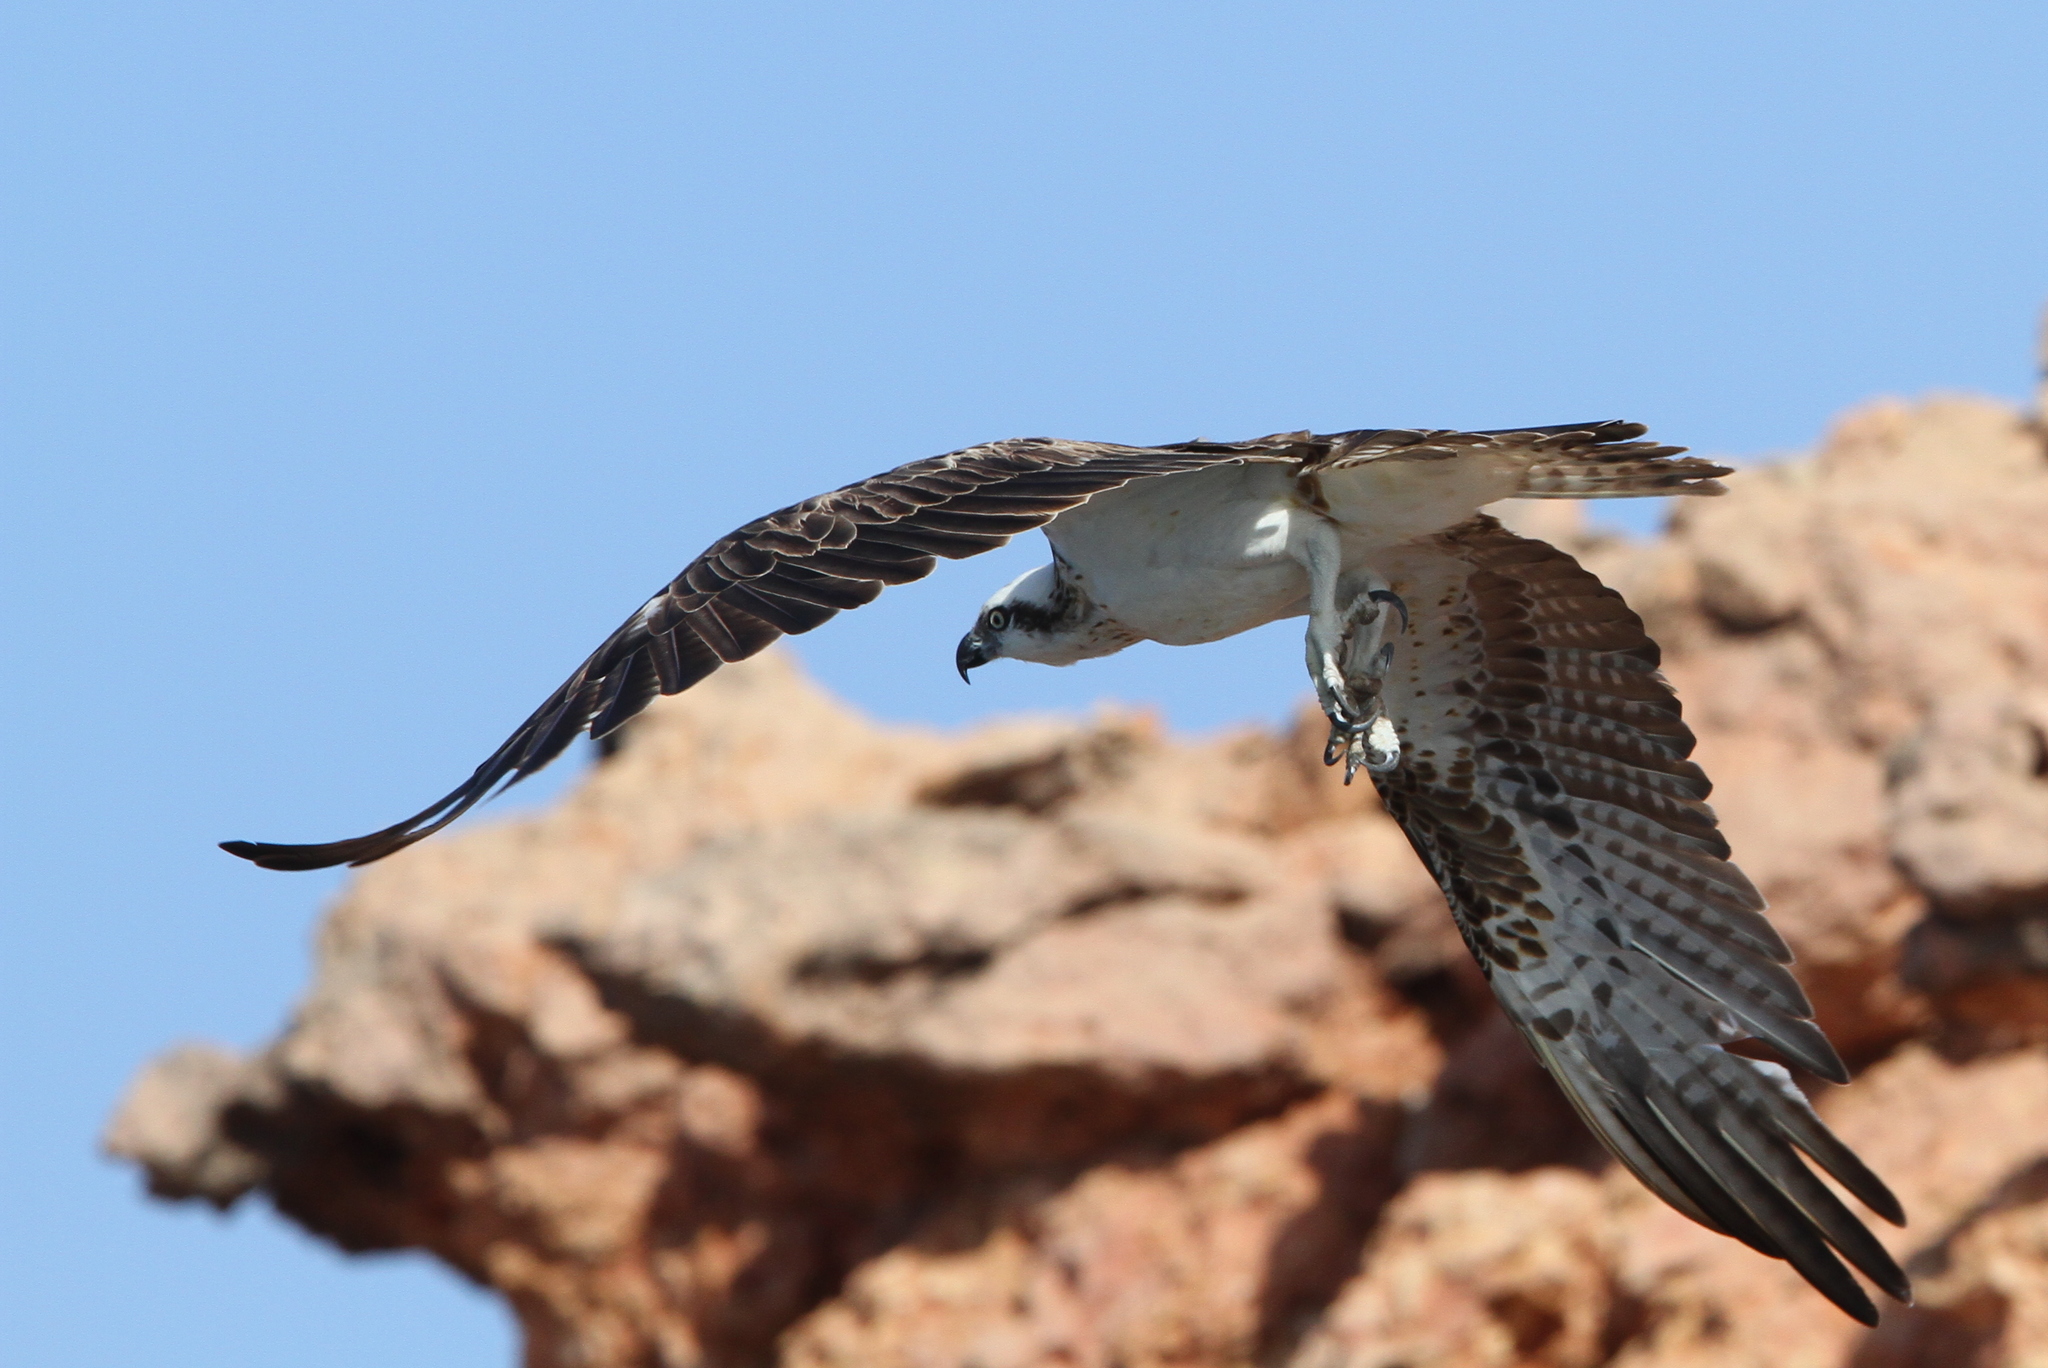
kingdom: Animalia
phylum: Chordata
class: Aves
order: Accipitriformes
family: Pandionidae
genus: Pandion
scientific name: Pandion haliaetus
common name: Osprey
